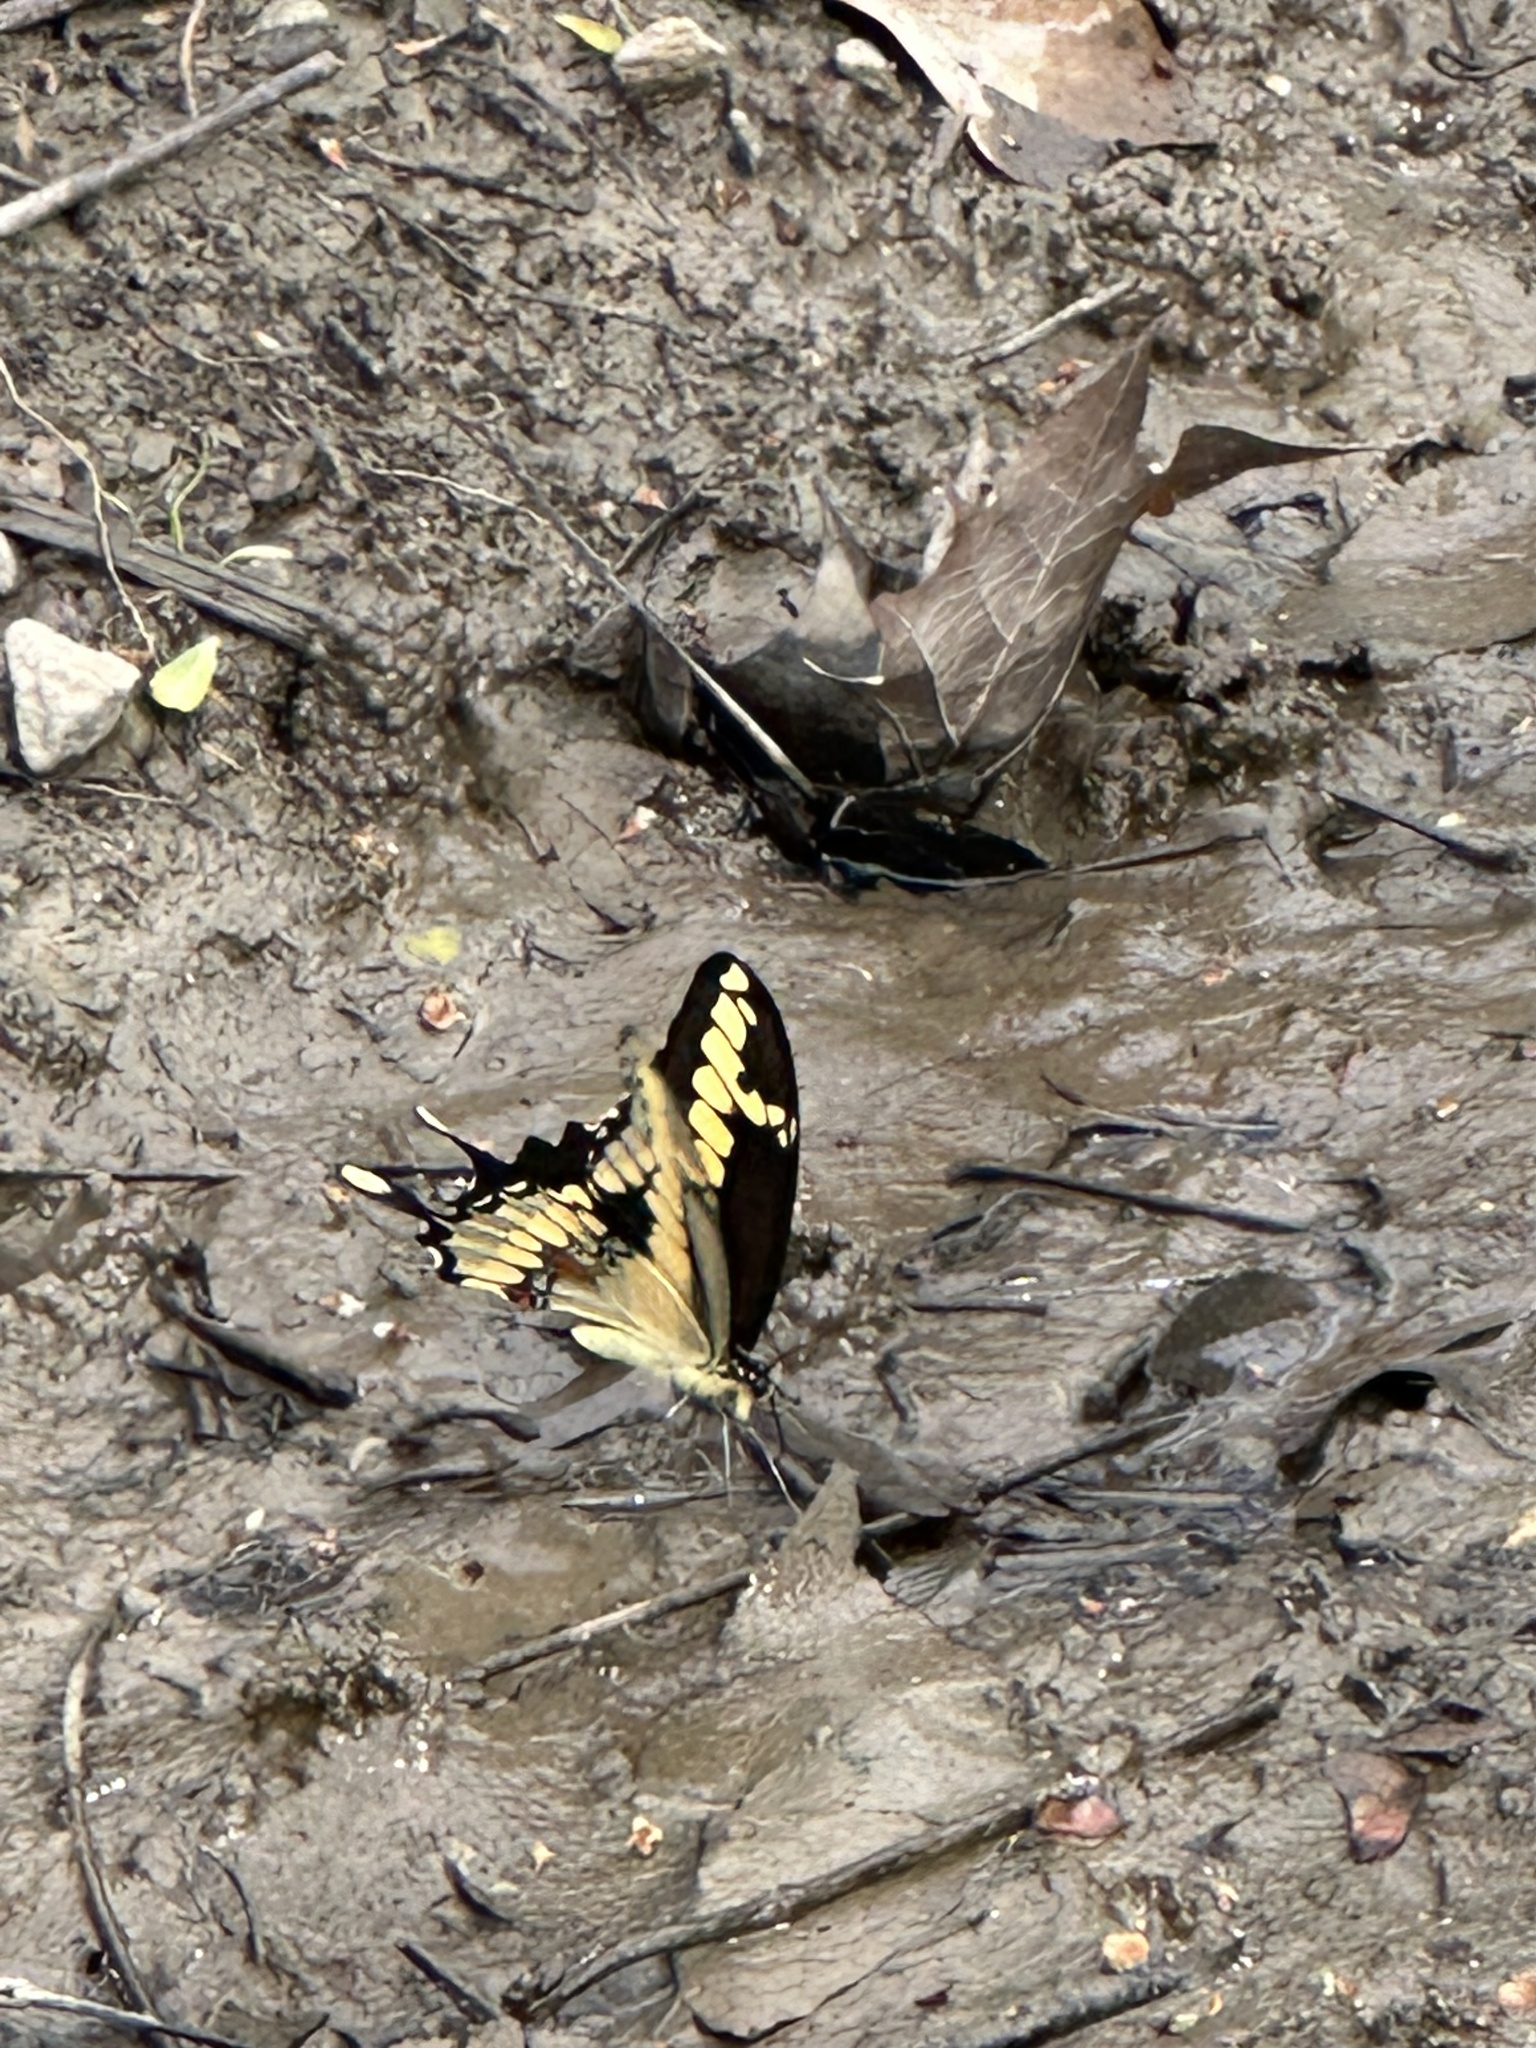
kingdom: Animalia
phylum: Arthropoda
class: Insecta
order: Lepidoptera
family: Papilionidae
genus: Papilio
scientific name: Papilio cresphontes
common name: Giant swallowtail
